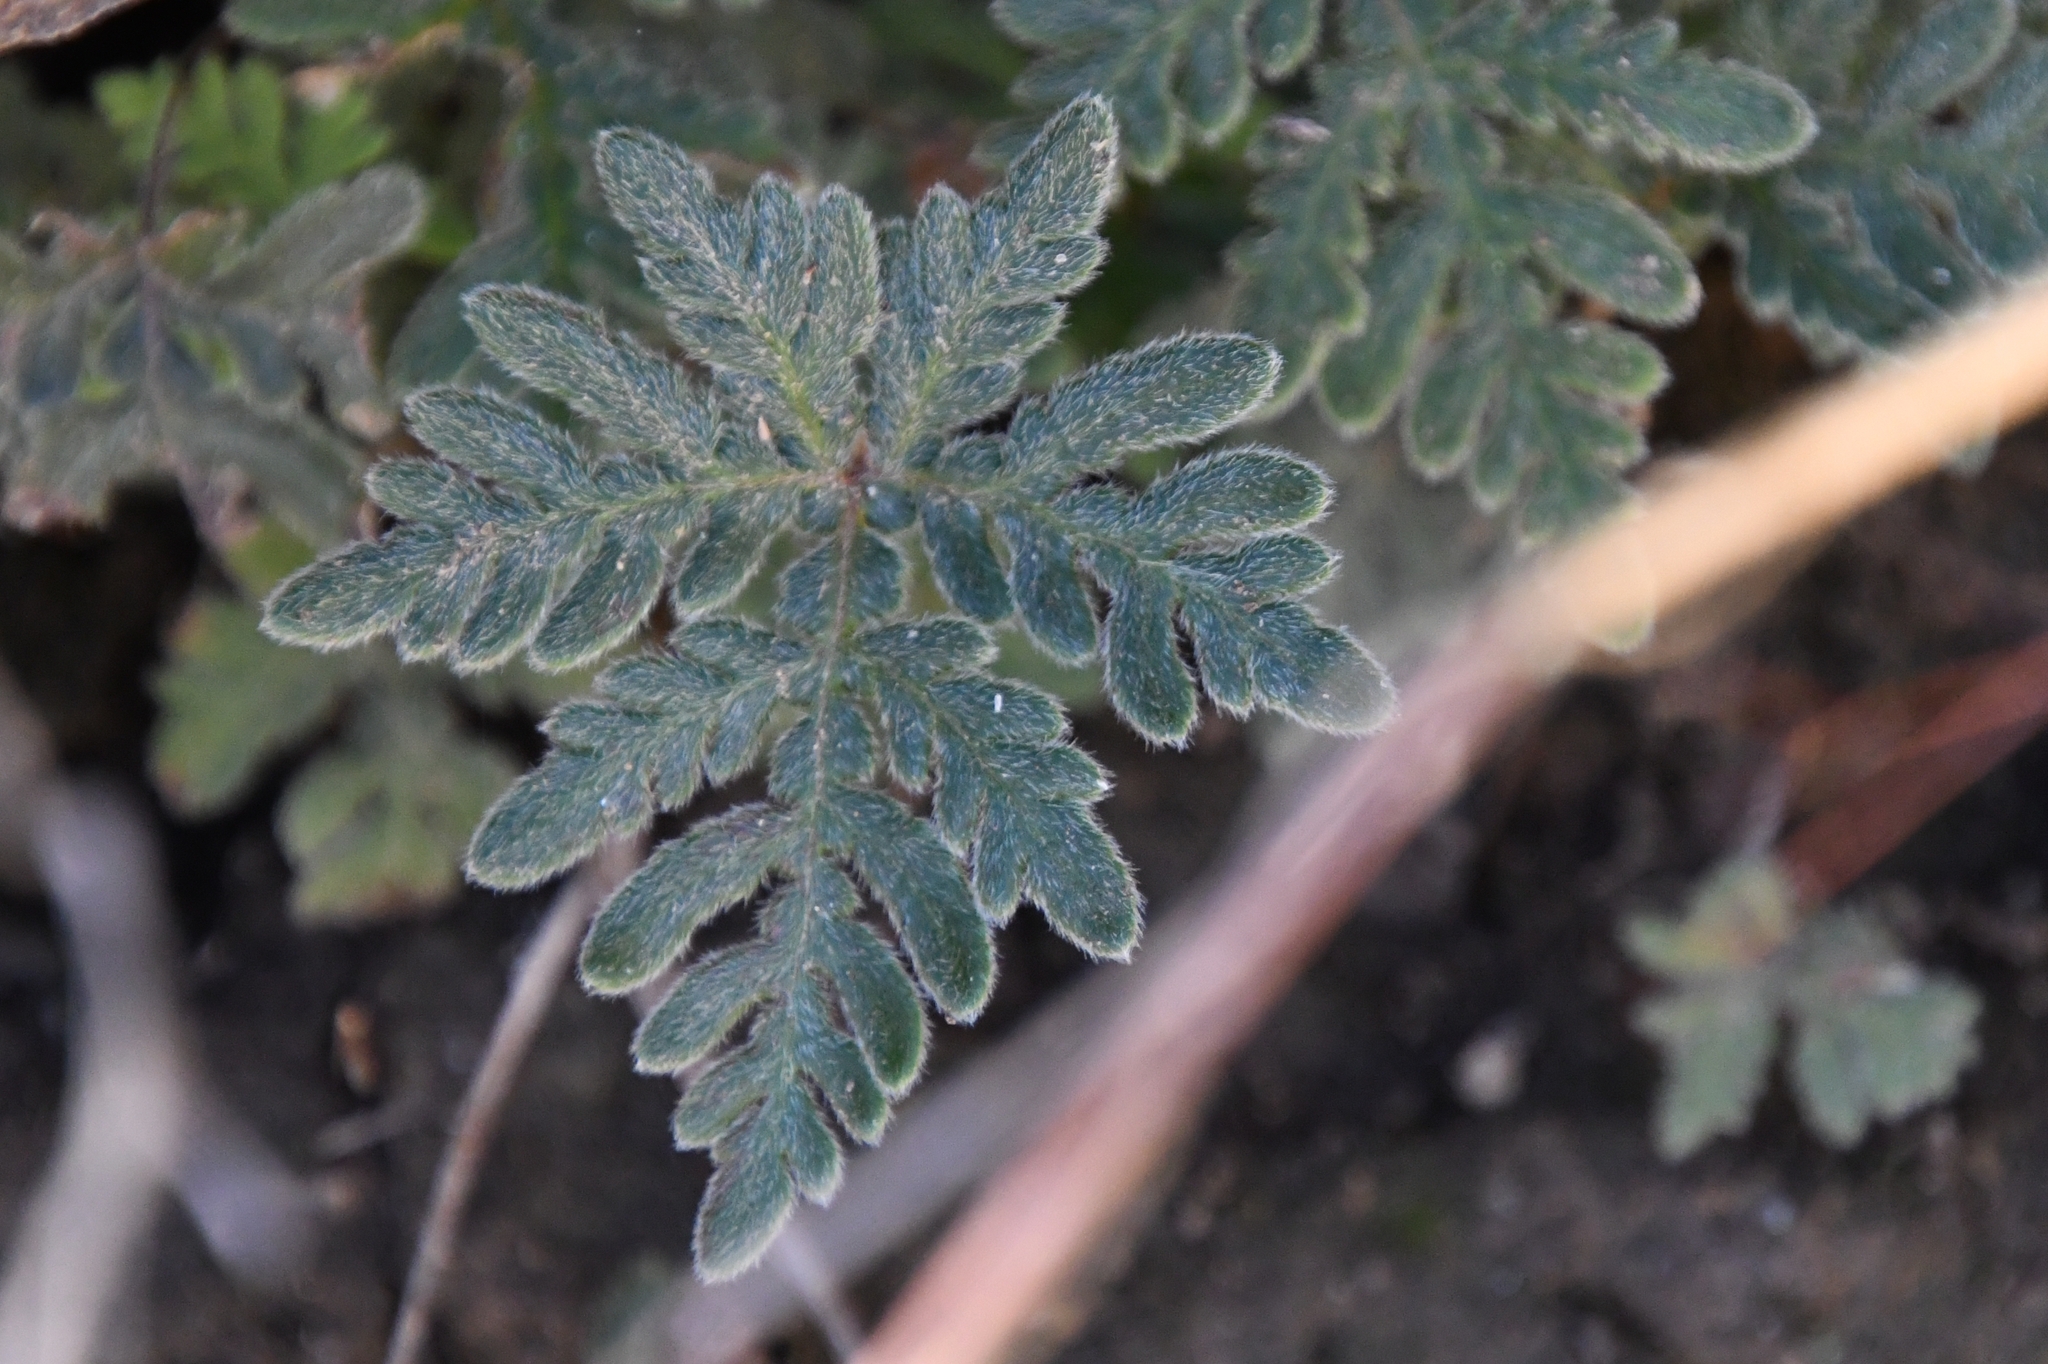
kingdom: Plantae
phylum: Tracheophyta
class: Polypodiopsida
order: Polypodiales
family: Pteridaceae
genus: Bommeria
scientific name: Bommeria hispida
